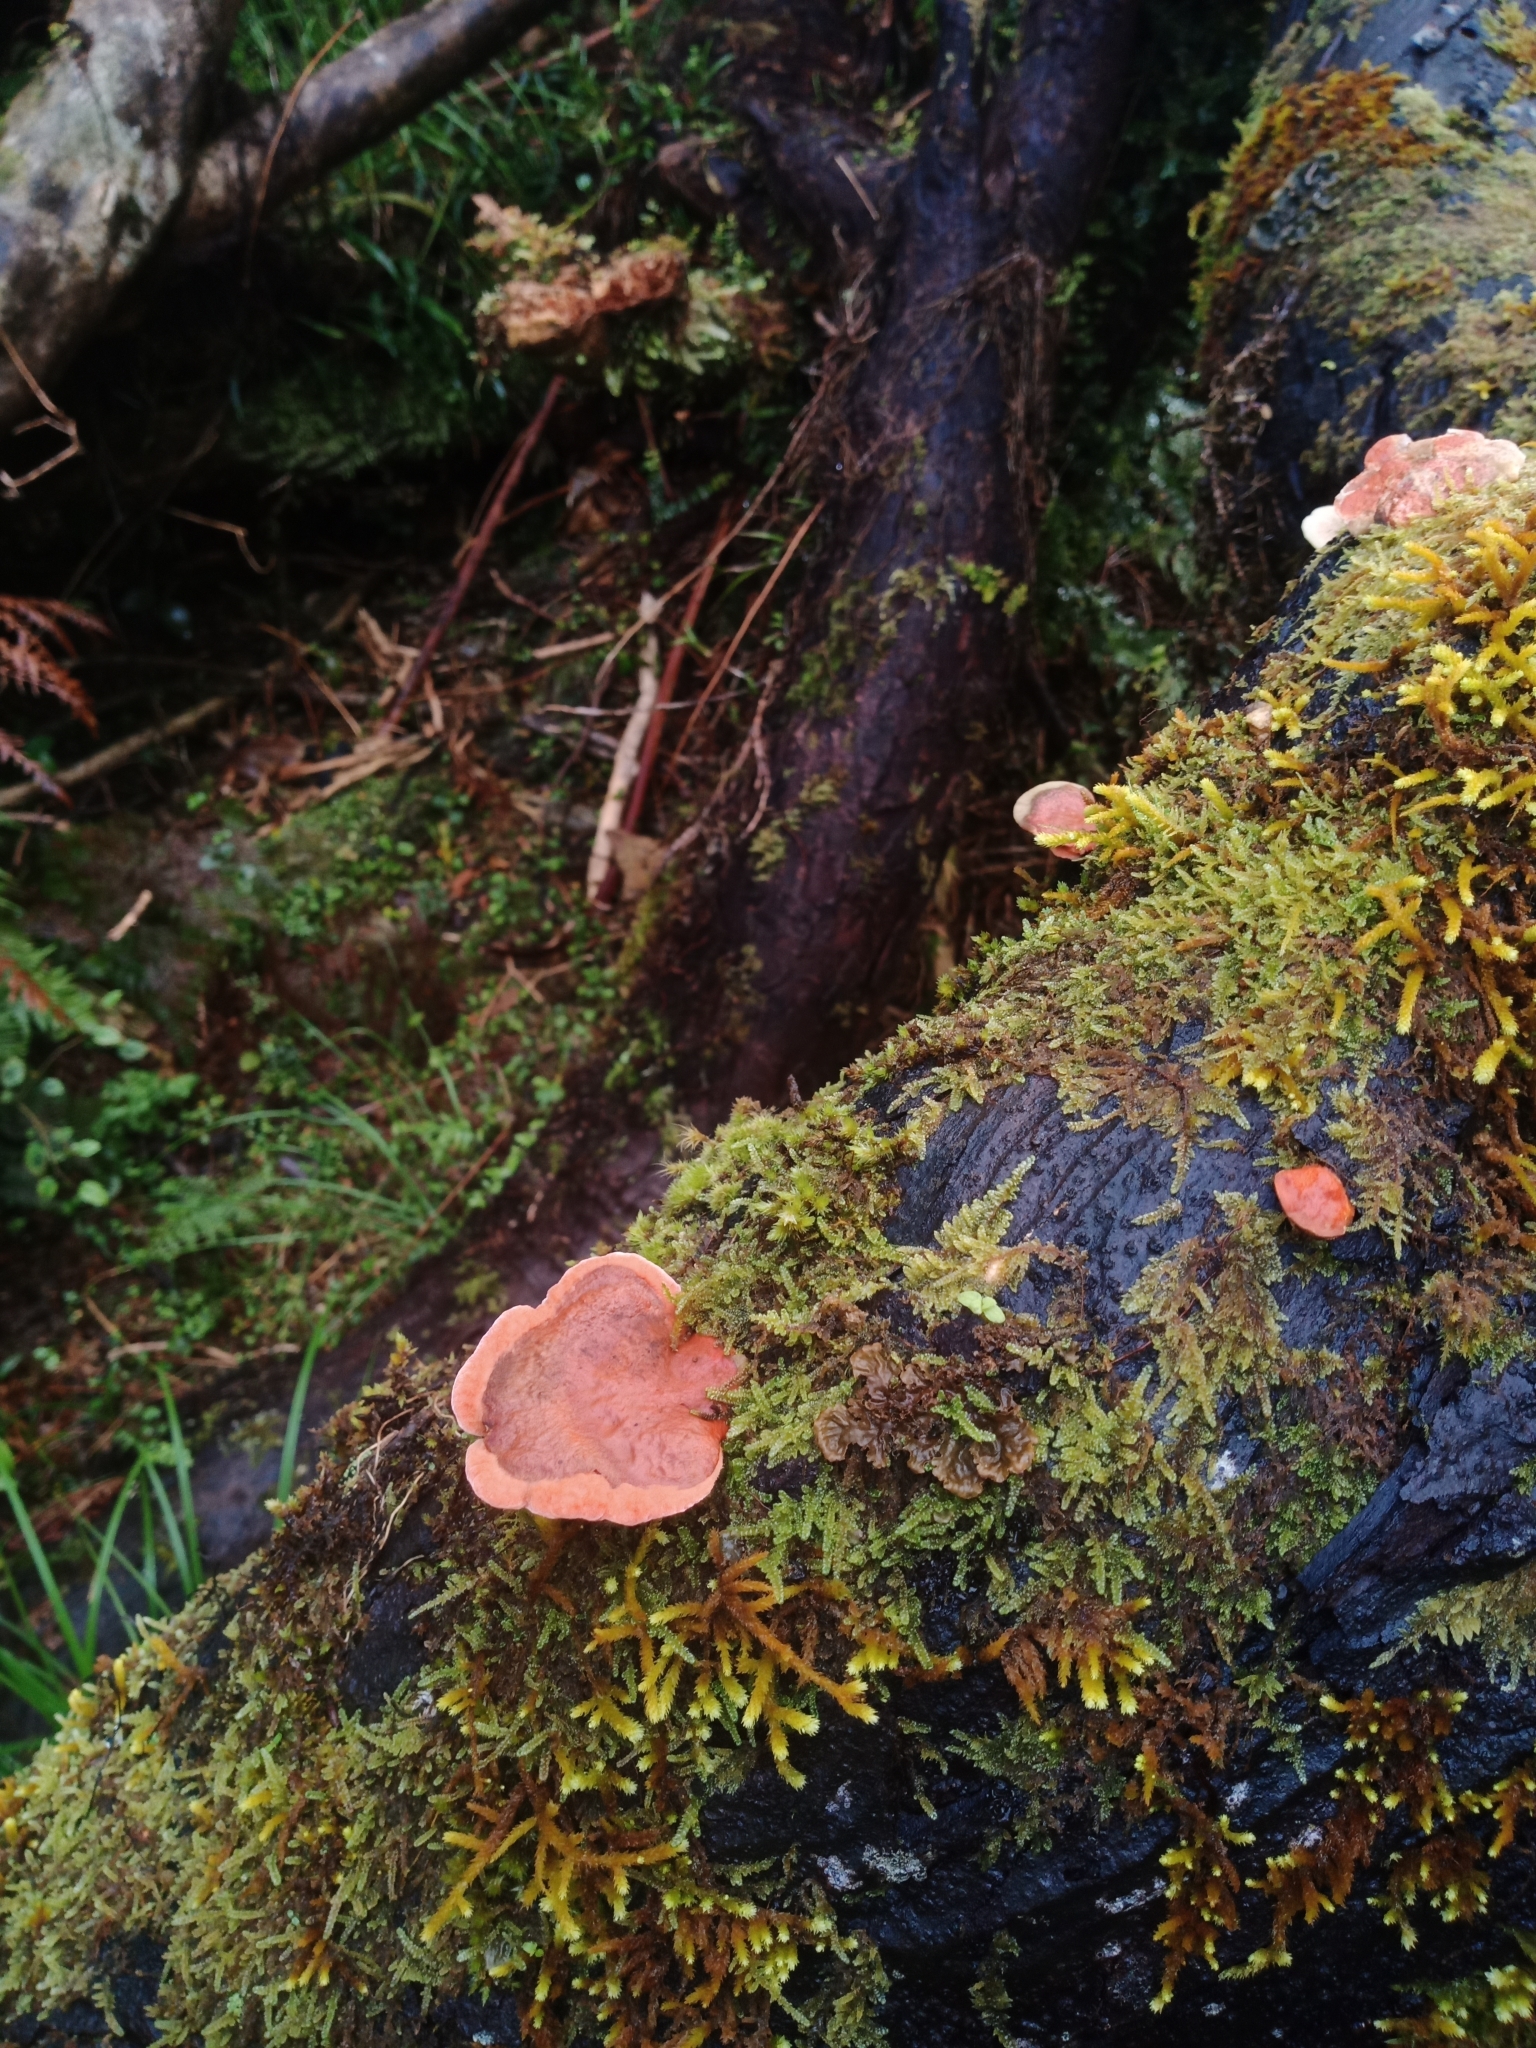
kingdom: Fungi
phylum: Basidiomycota
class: Agaricomycetes
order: Polyporales
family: Incrustoporiaceae
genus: Tyromyces
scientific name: Tyromyces pulcherrimus
